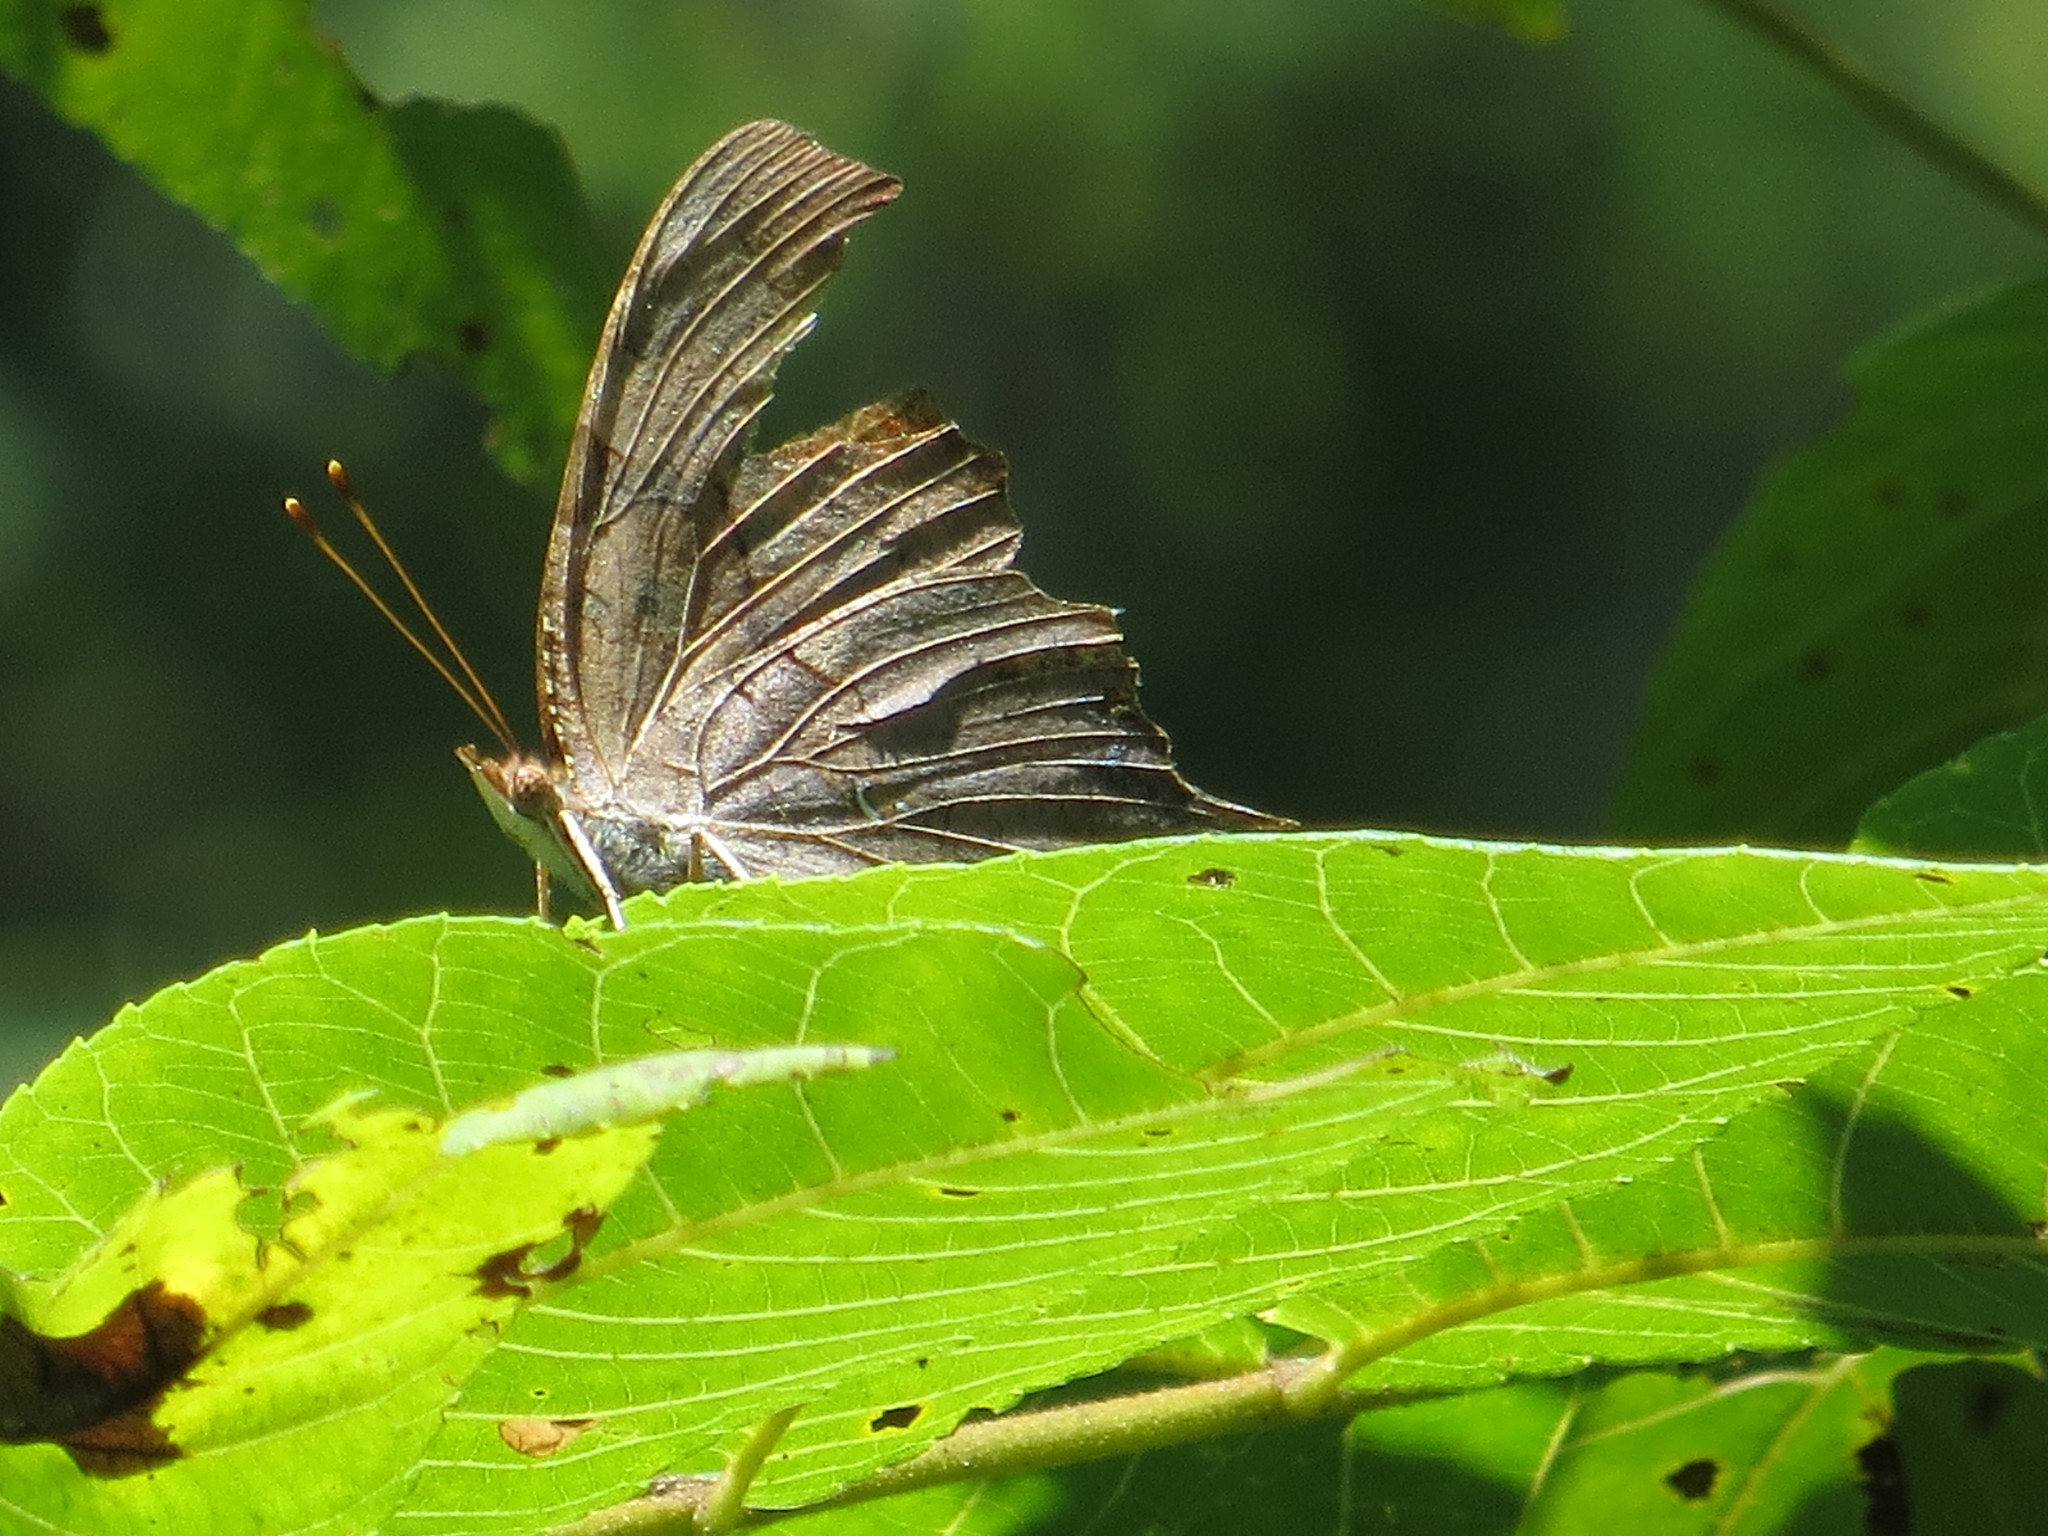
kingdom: Animalia
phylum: Arthropoda
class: Insecta
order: Lepidoptera
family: Nymphalidae
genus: Polygonia
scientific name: Polygonia interrogationis
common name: Question mark
